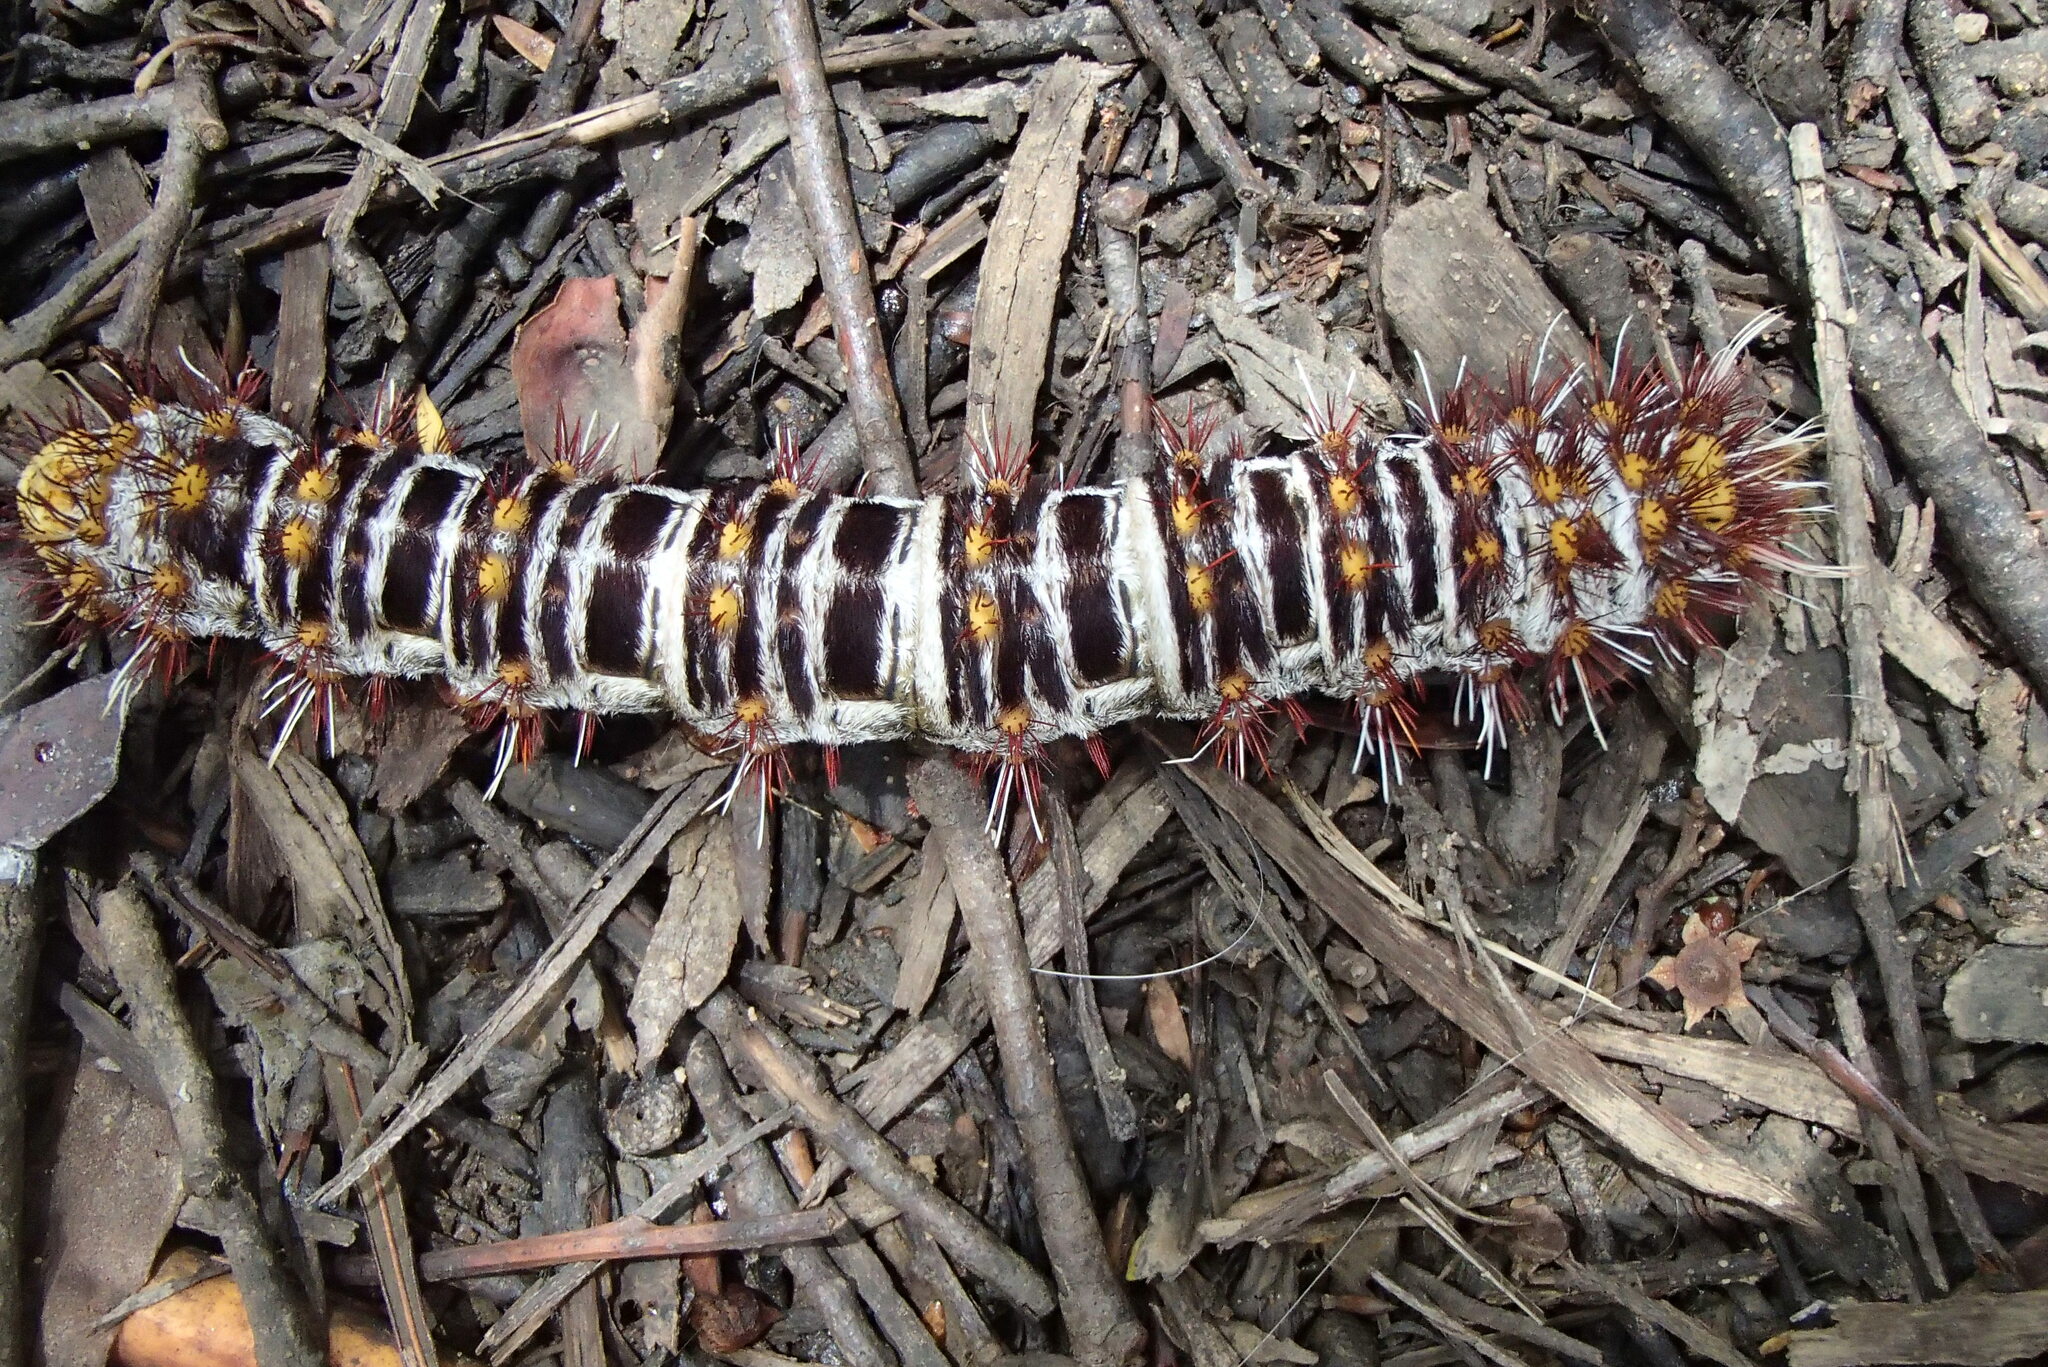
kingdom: Animalia
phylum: Arthropoda
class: Insecta
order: Lepidoptera
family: Anthelidae
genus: Chelepteryx
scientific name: Chelepteryx collesi
